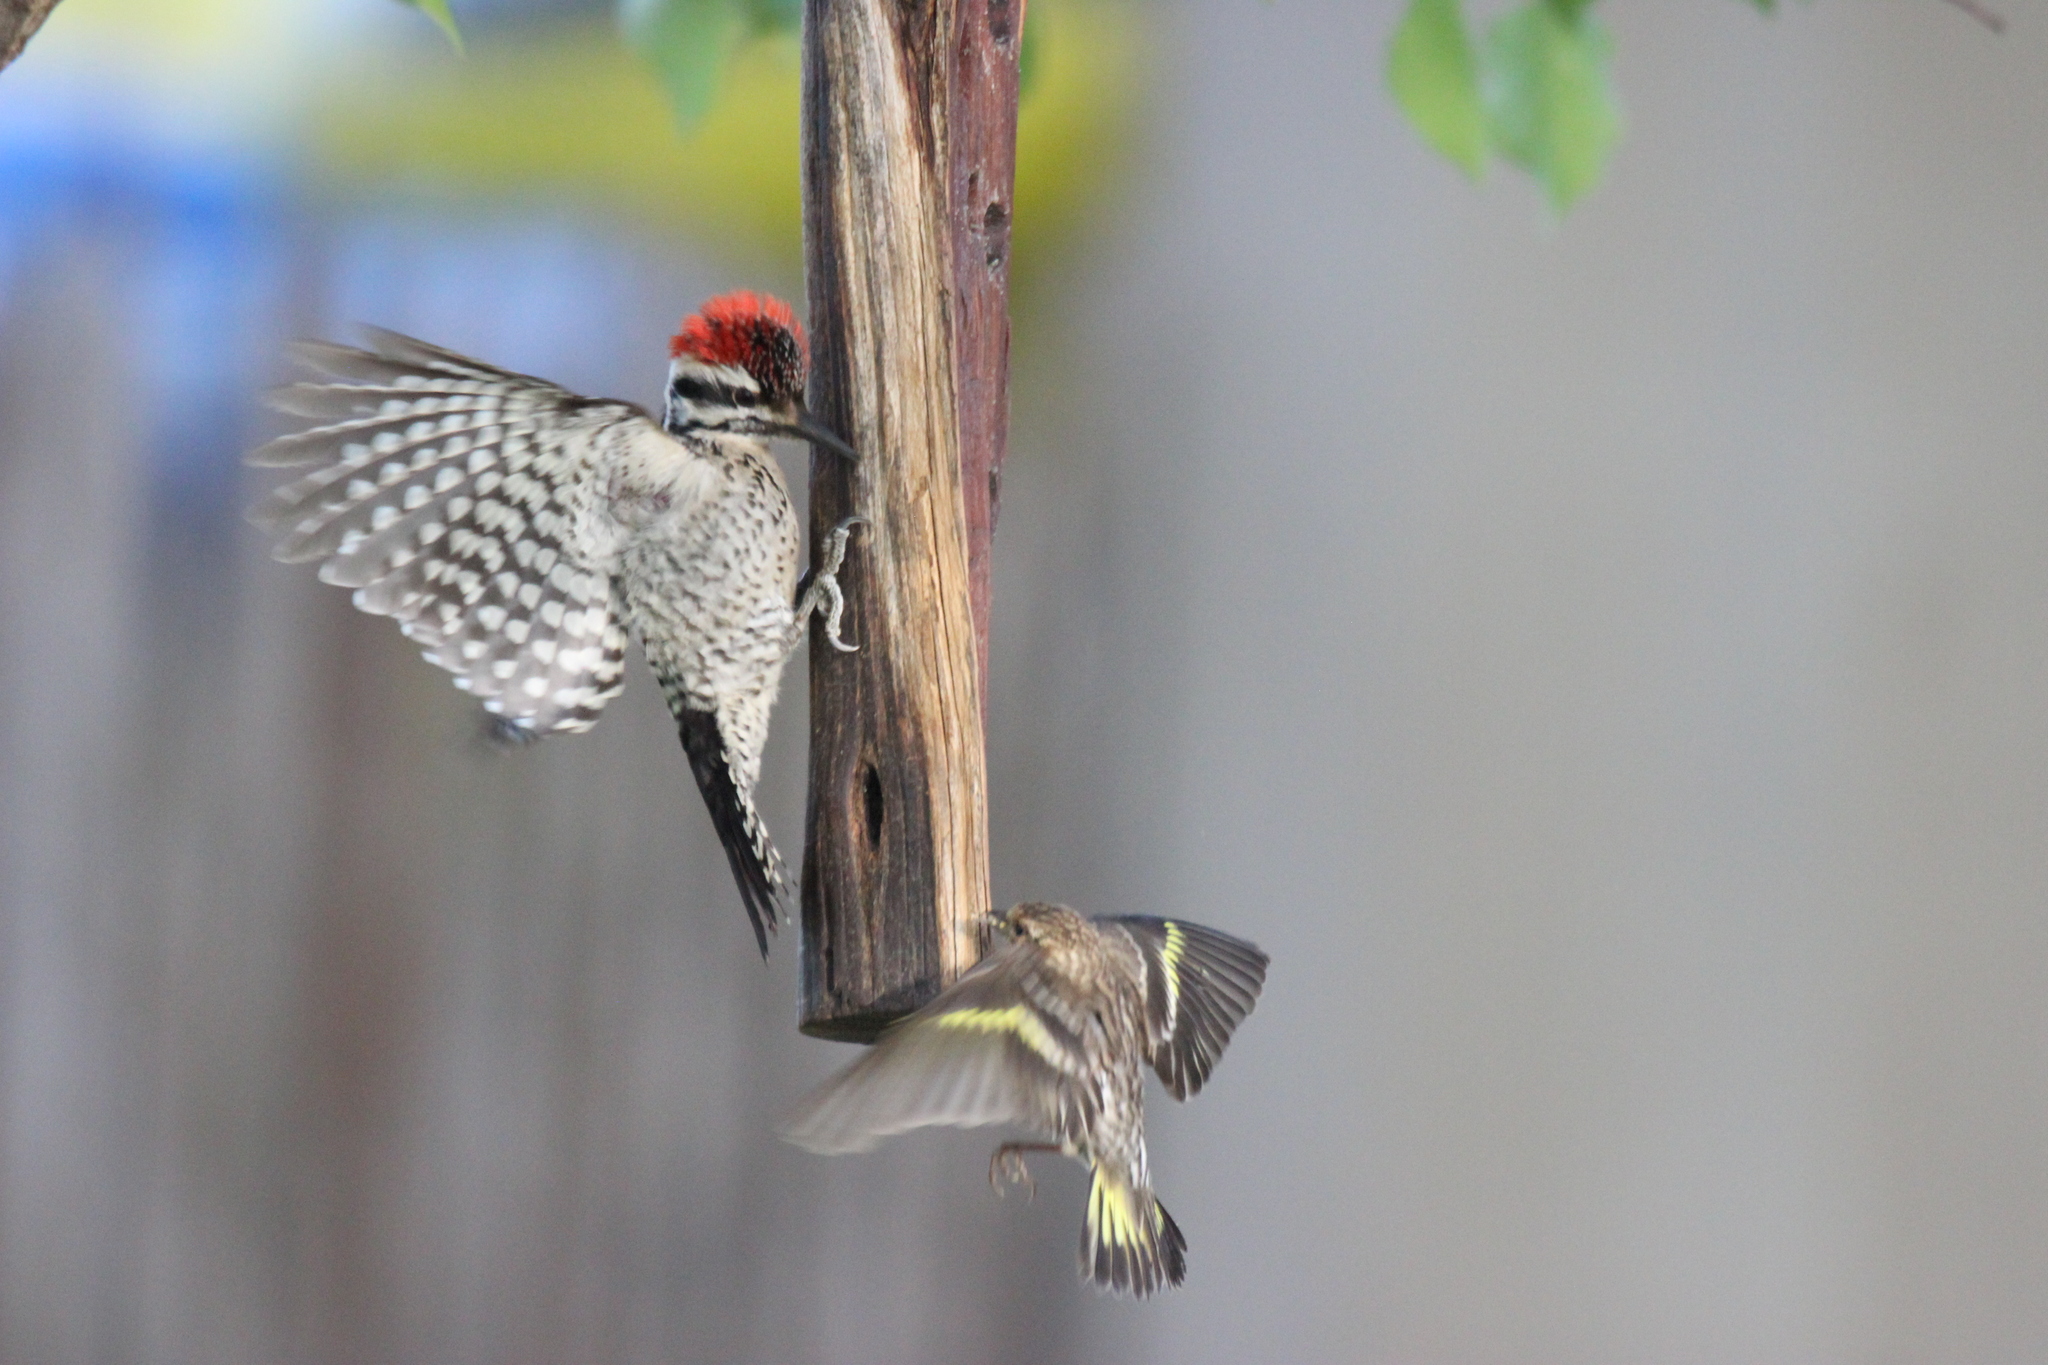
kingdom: Animalia
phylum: Chordata
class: Aves
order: Piciformes
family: Picidae
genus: Dryobates
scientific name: Dryobates scalaris
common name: Ladder-backed woodpecker
